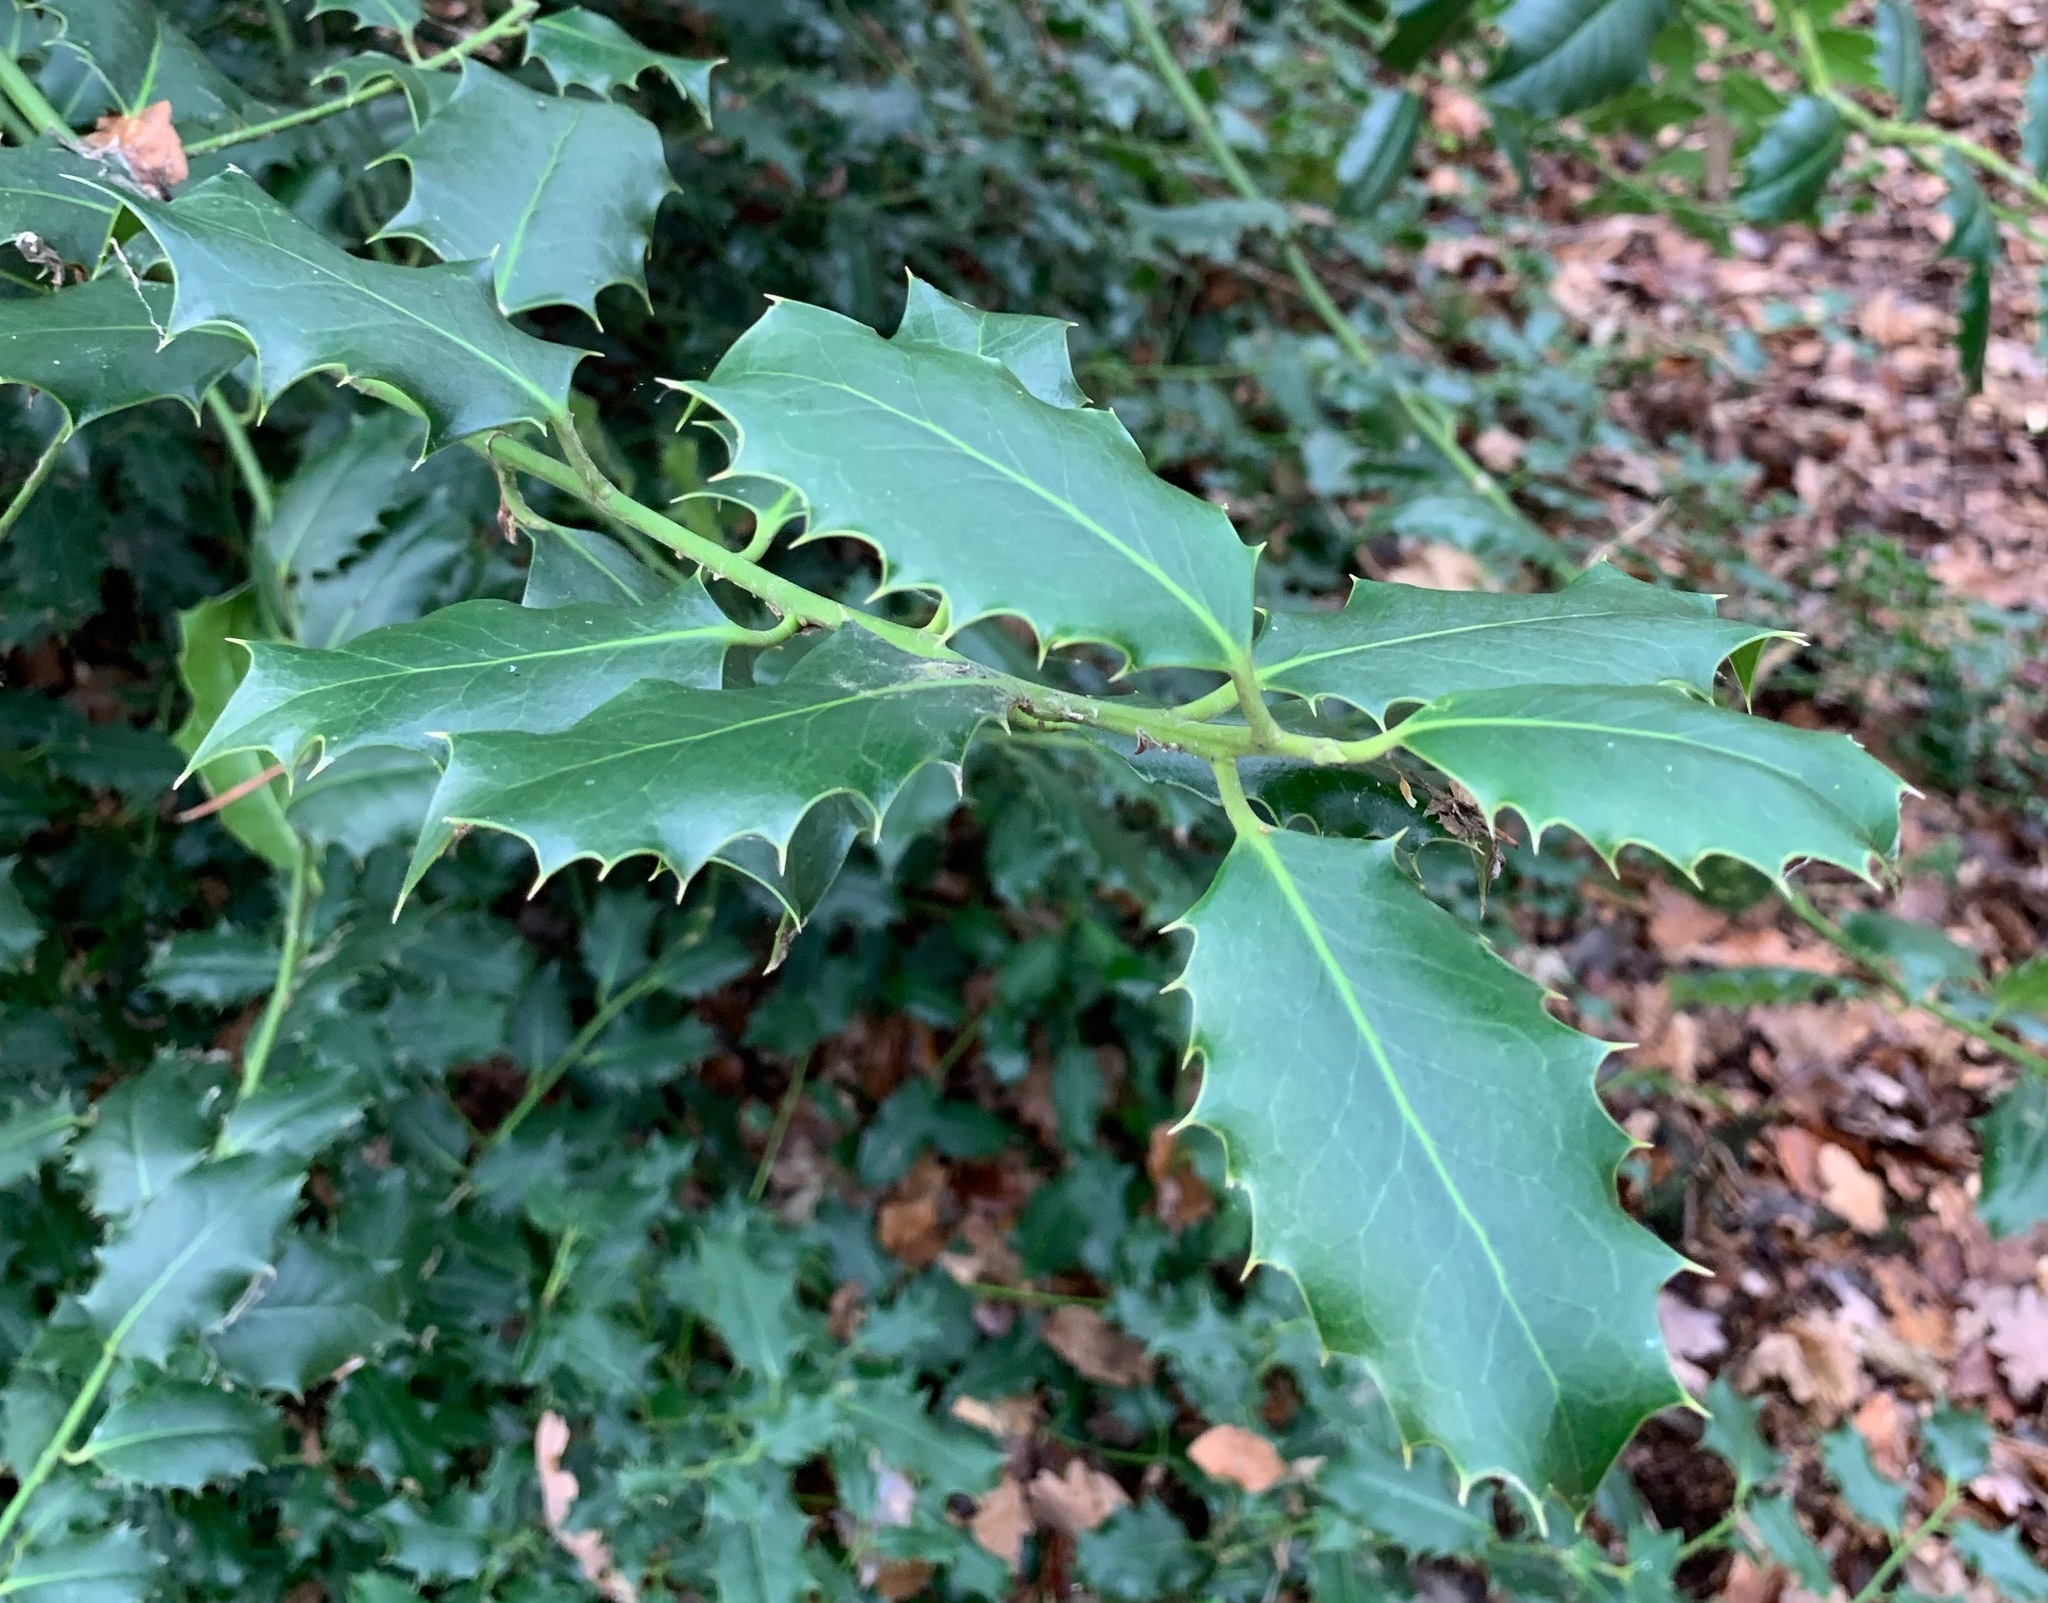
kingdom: Plantae
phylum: Tracheophyta
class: Magnoliopsida
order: Aquifoliales
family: Aquifoliaceae
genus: Ilex
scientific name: Ilex aquifolium
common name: English holly
